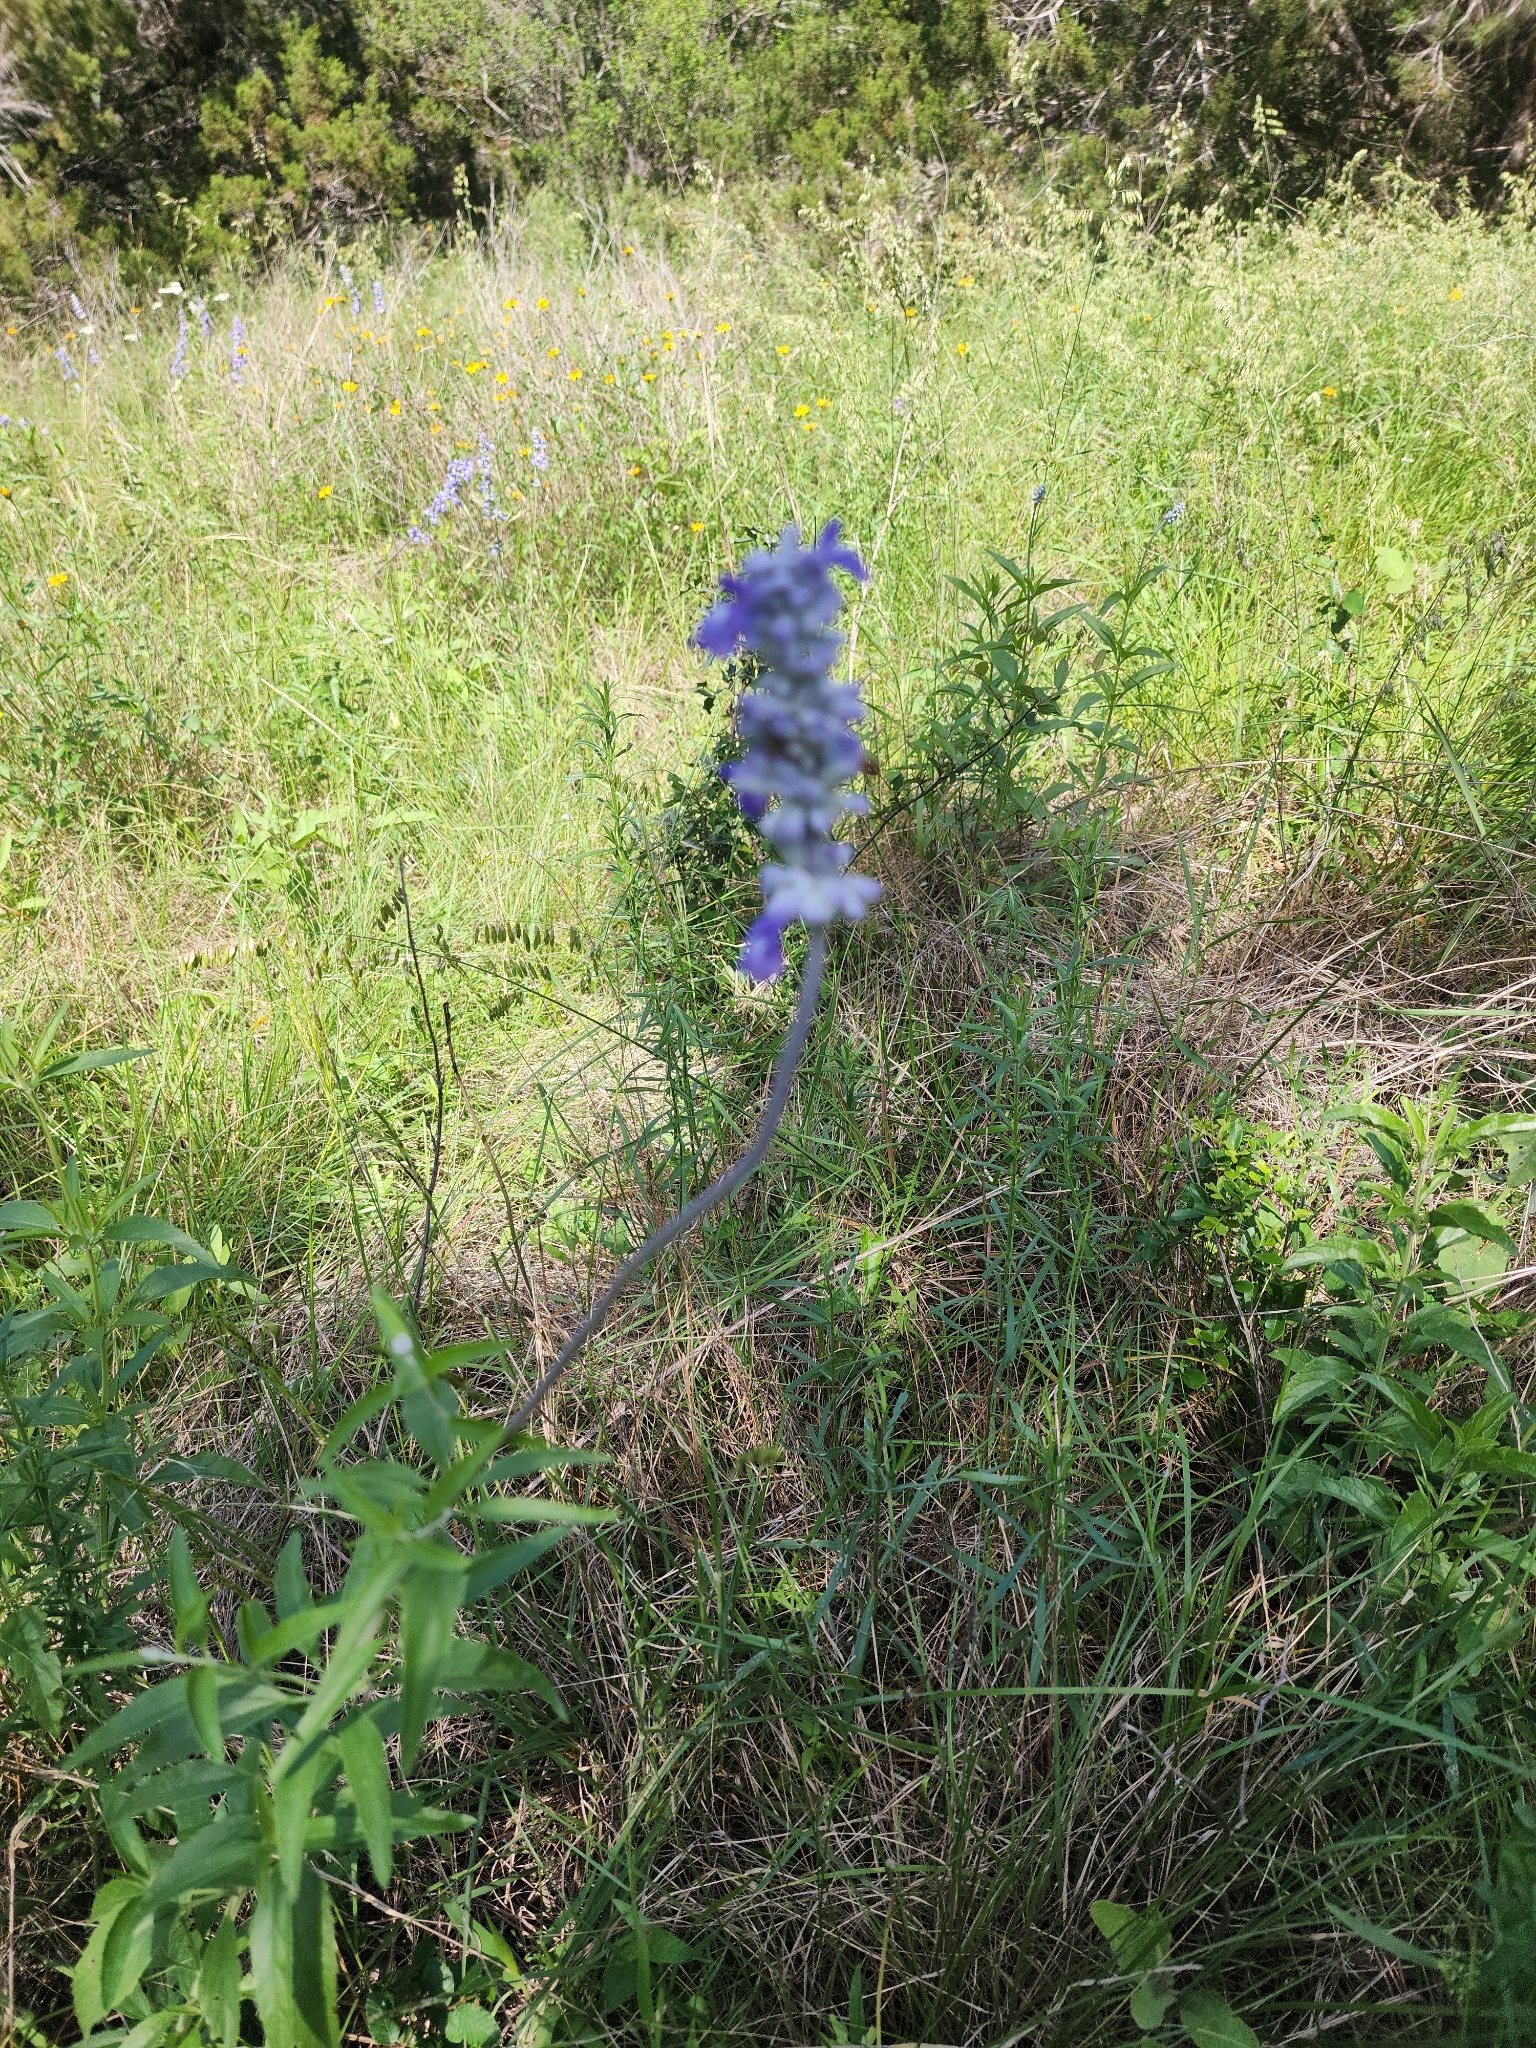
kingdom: Plantae
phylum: Tracheophyta
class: Magnoliopsida
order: Lamiales
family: Lamiaceae
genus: Salvia
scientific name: Salvia farinacea
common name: Mealy sage
